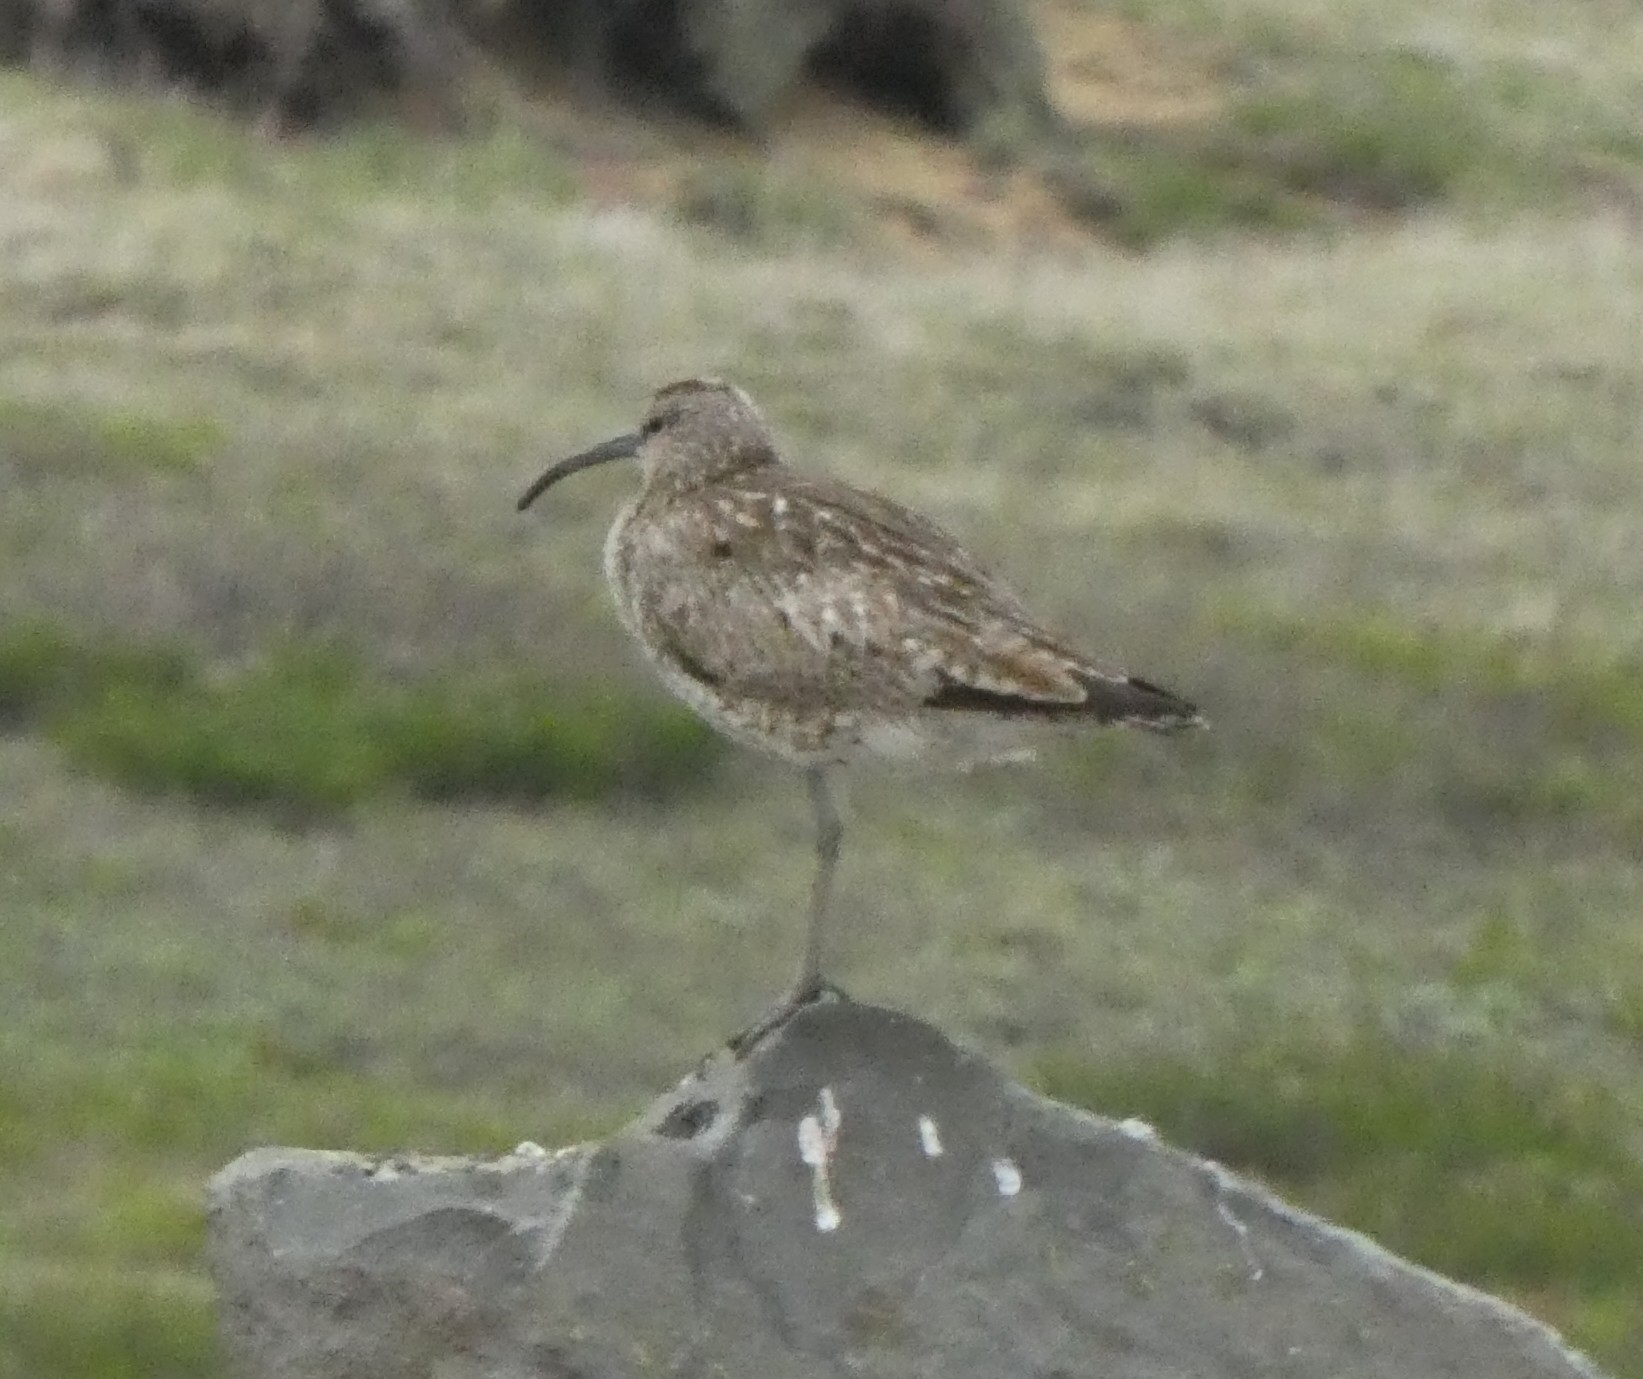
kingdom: Animalia
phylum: Chordata
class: Aves
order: Charadriiformes
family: Scolopacidae
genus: Numenius
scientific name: Numenius phaeopus
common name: Whimbrel
